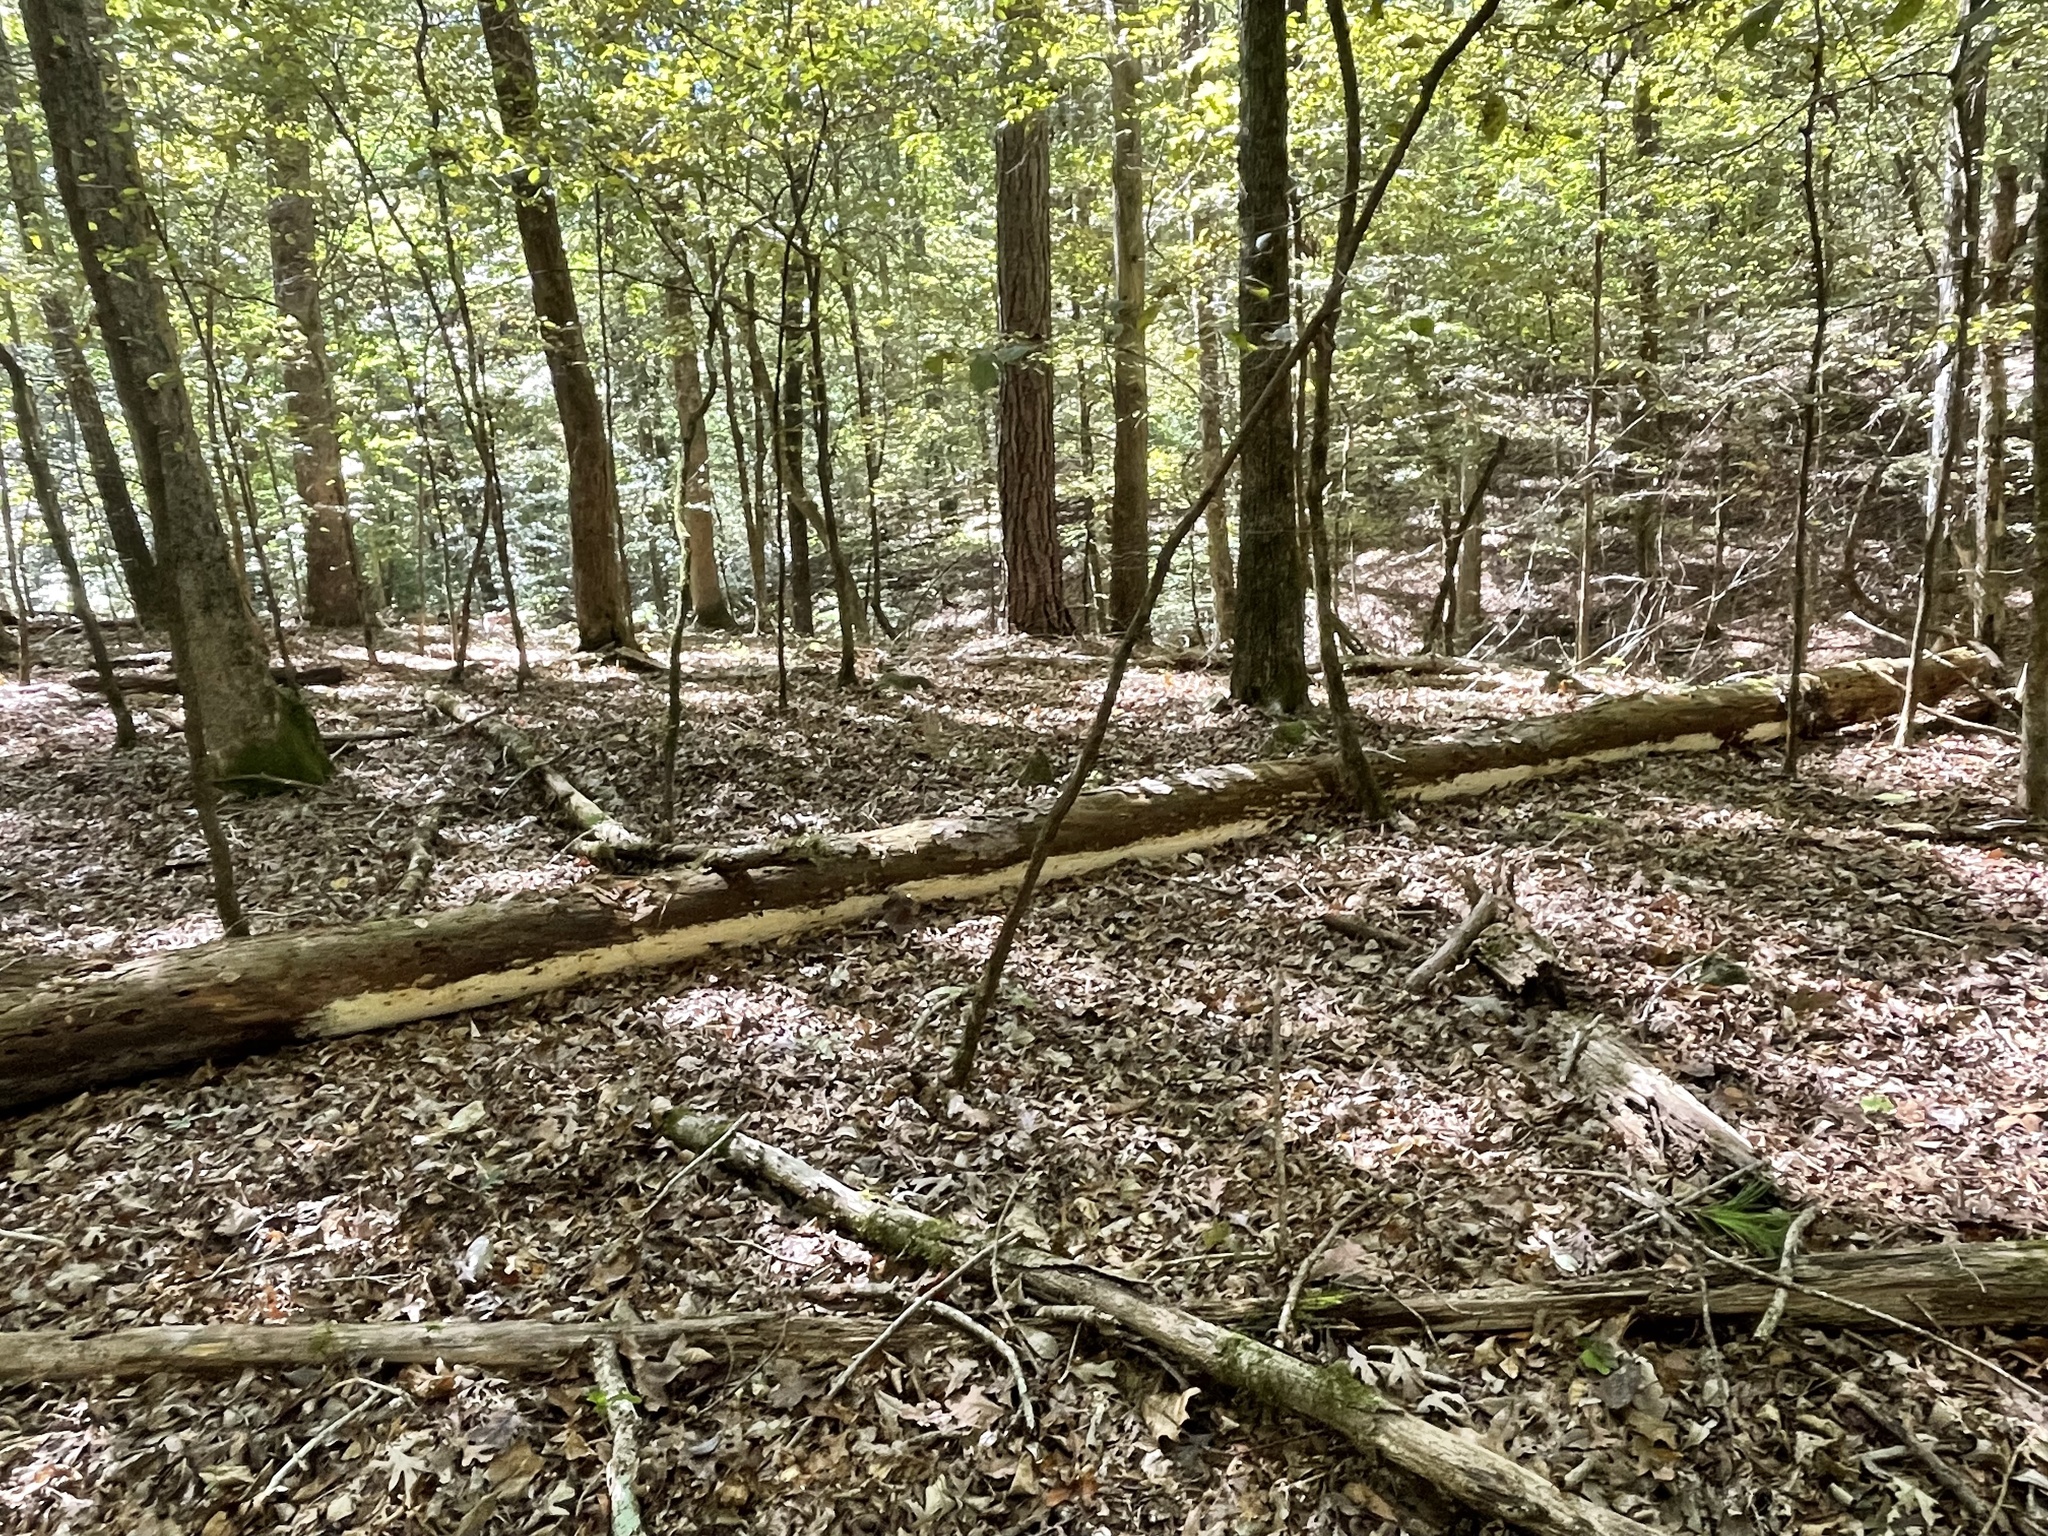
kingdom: Fungi
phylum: Basidiomycota
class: Agaricomycetes
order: Russulales
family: Bondarzewiaceae
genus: Wrightoporia
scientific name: Wrightoporia austrosinensis
